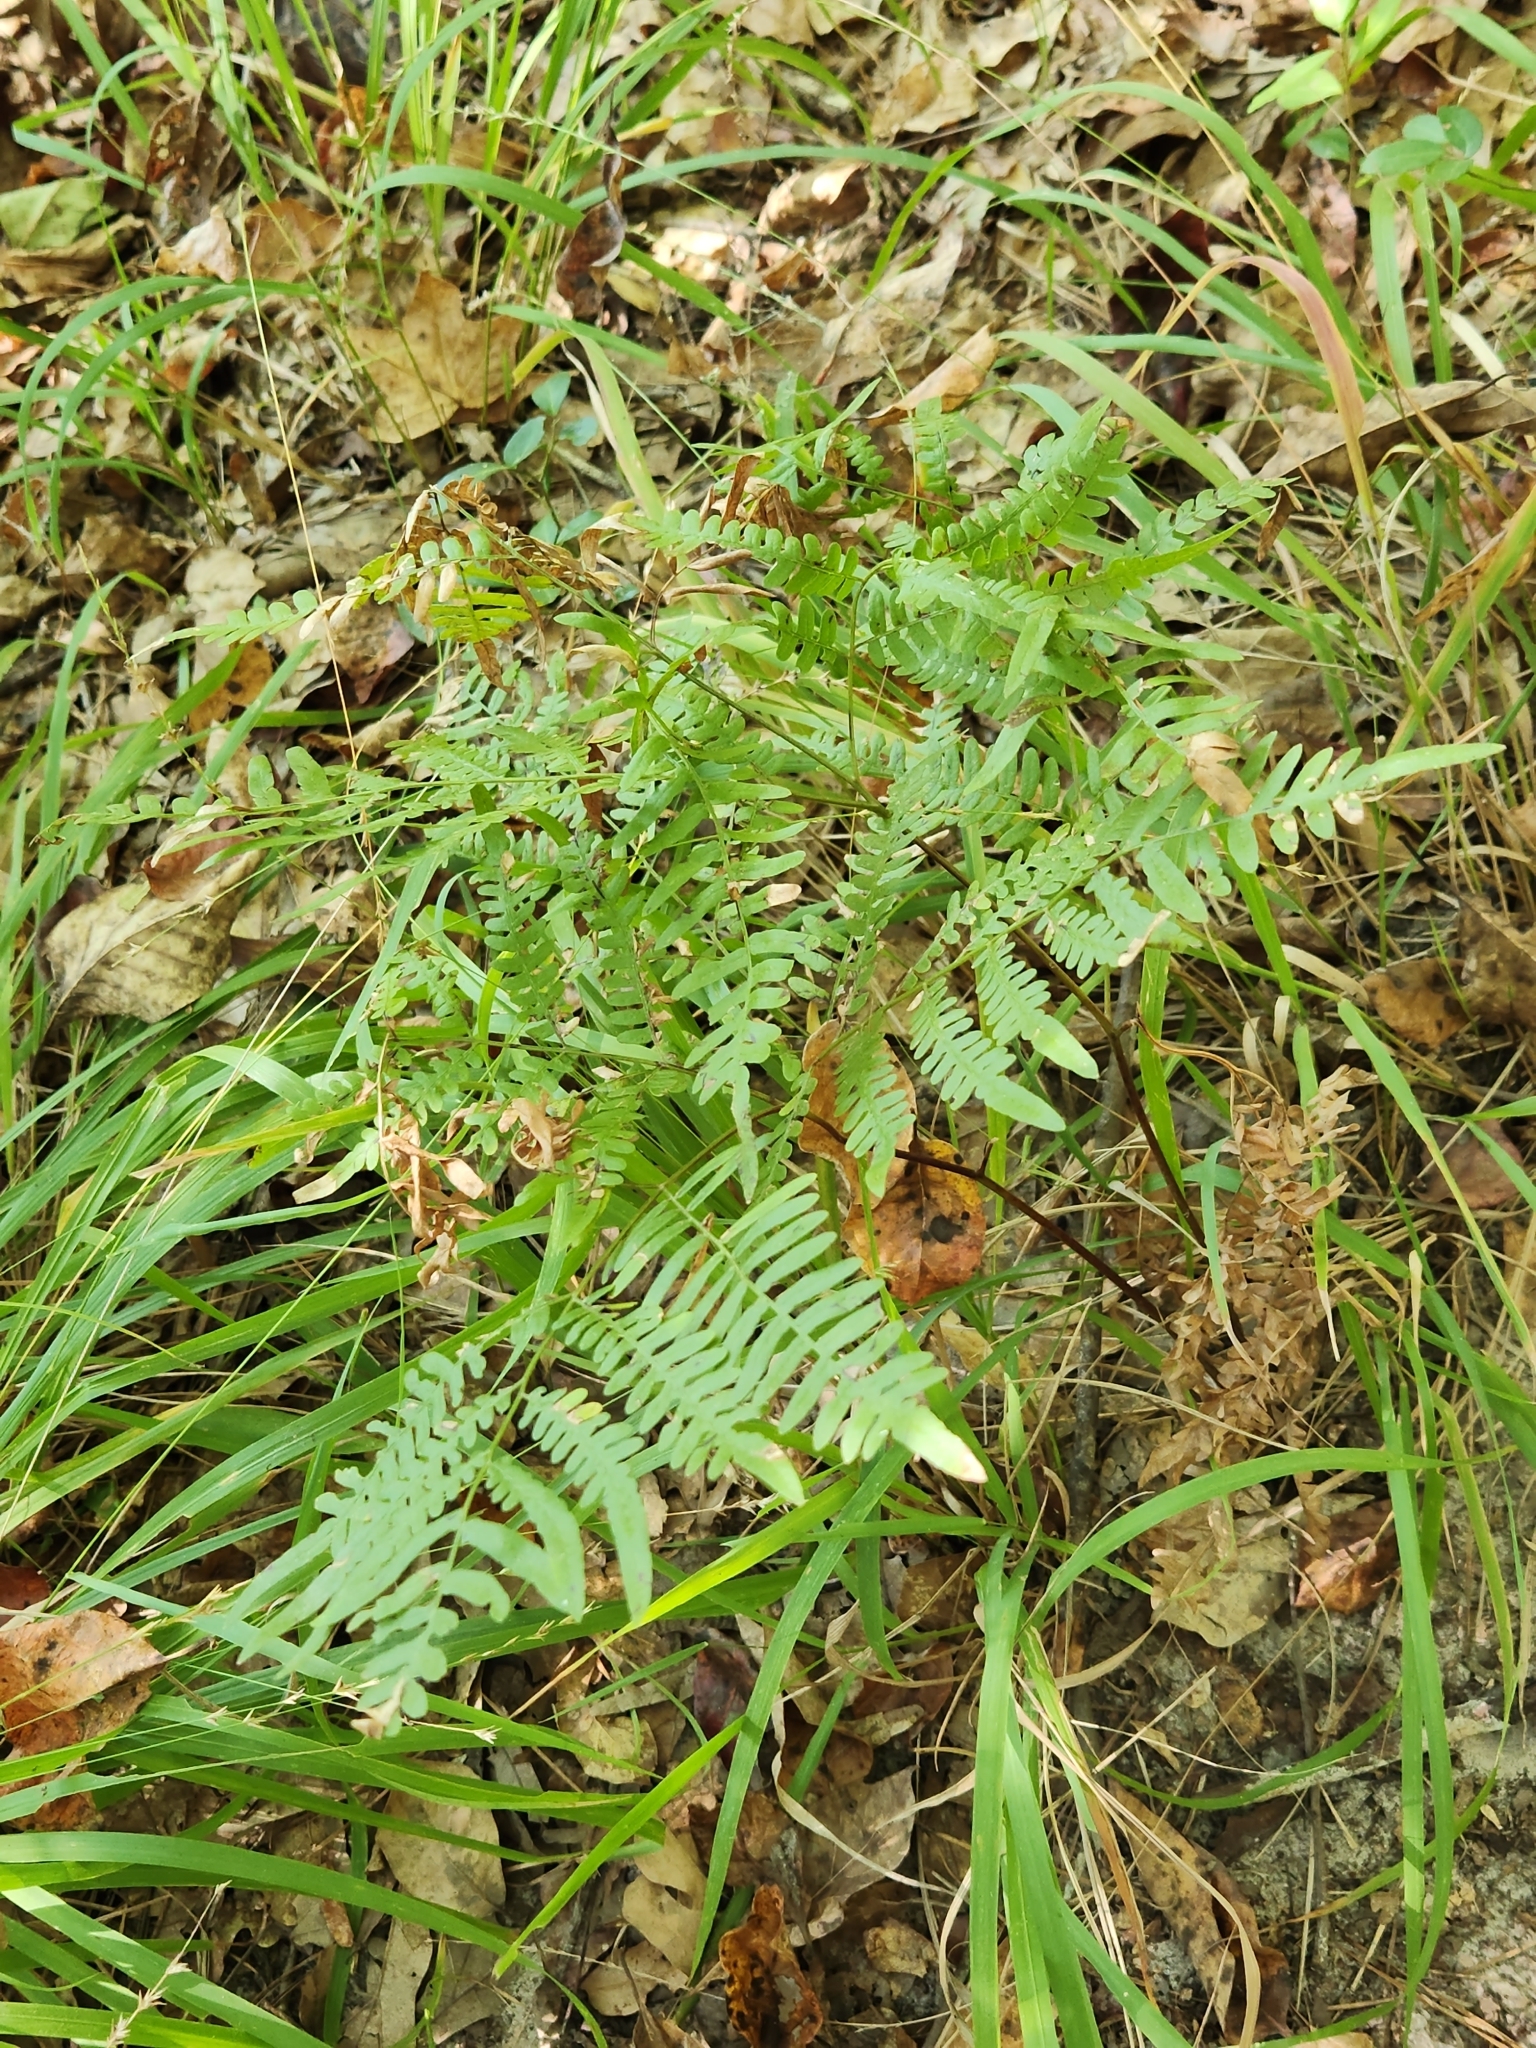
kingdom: Plantae
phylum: Tracheophyta
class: Polypodiopsida
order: Polypodiales
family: Dennstaedtiaceae
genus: Pteridium
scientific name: Pteridium aquilinum
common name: Bracken
